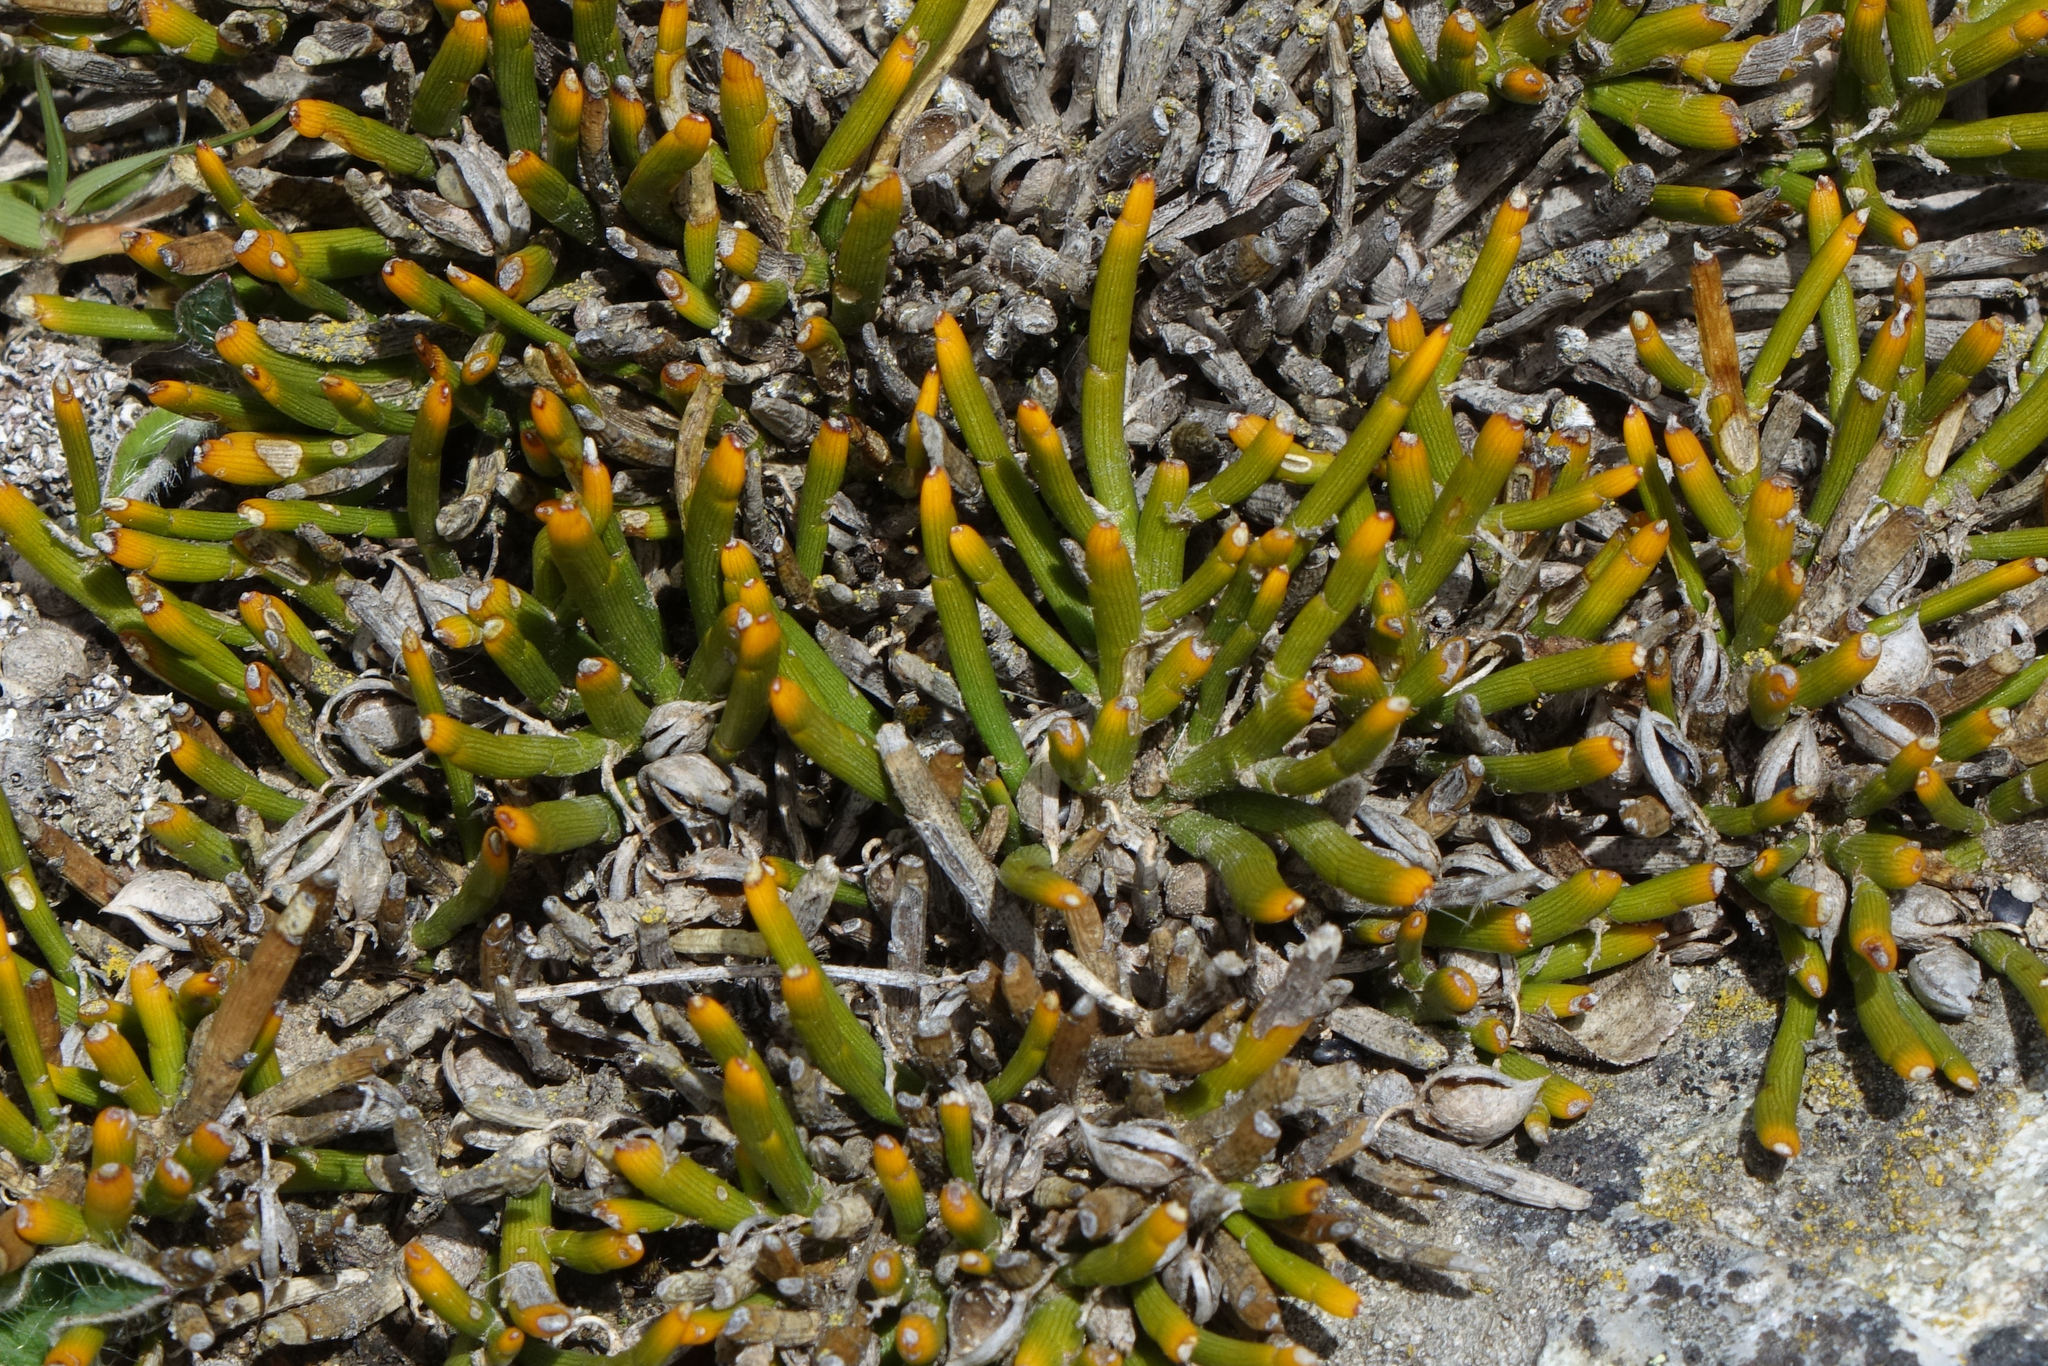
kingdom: Plantae
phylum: Tracheophyta
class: Magnoliopsida
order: Fabales
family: Fabaceae
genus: Carmichaelia
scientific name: Carmichaelia nana
